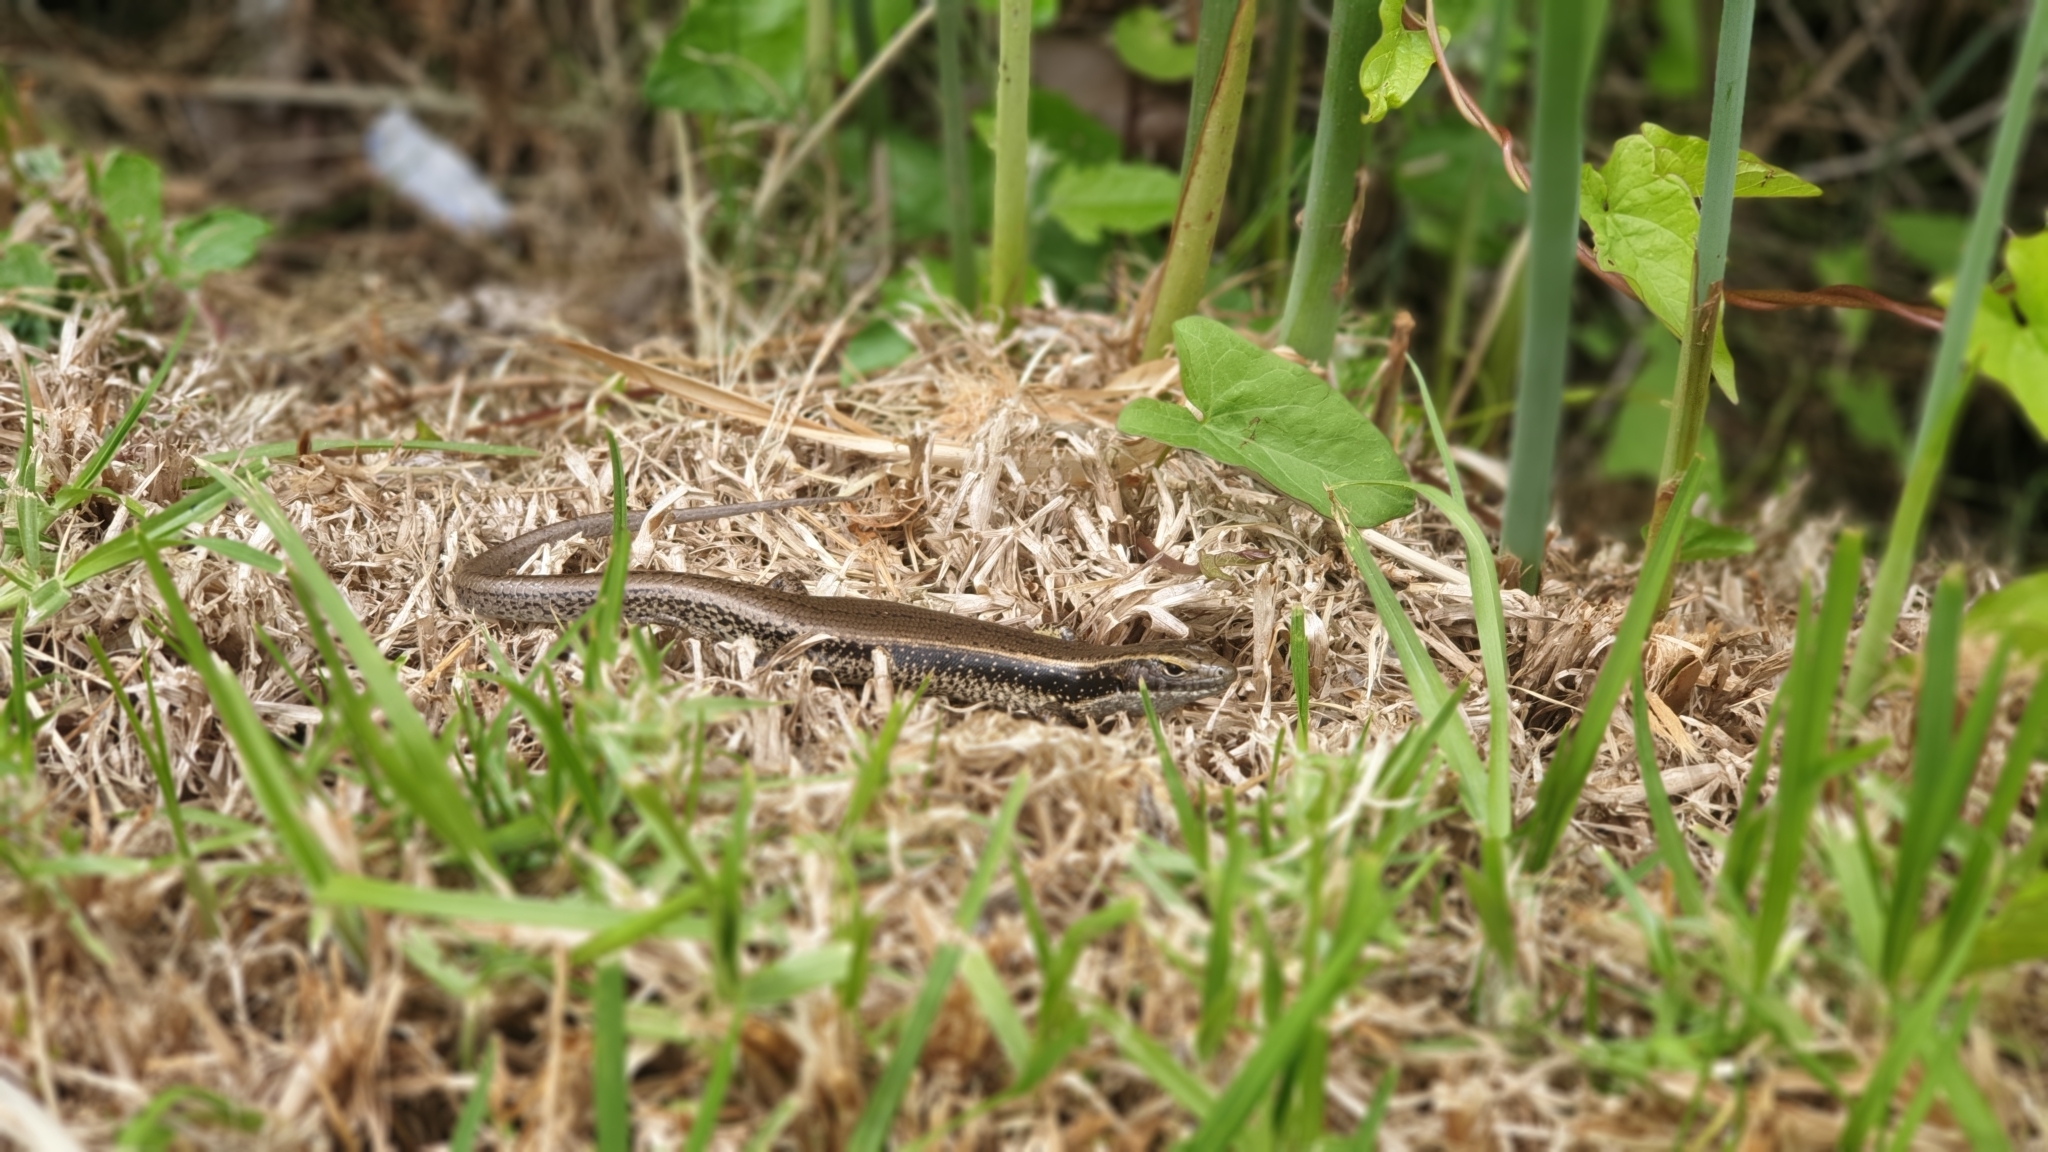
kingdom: Animalia
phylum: Chordata
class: Squamata
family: Scincidae
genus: Eulamprus
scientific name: Eulamprus quoyii
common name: Eastern water skink
